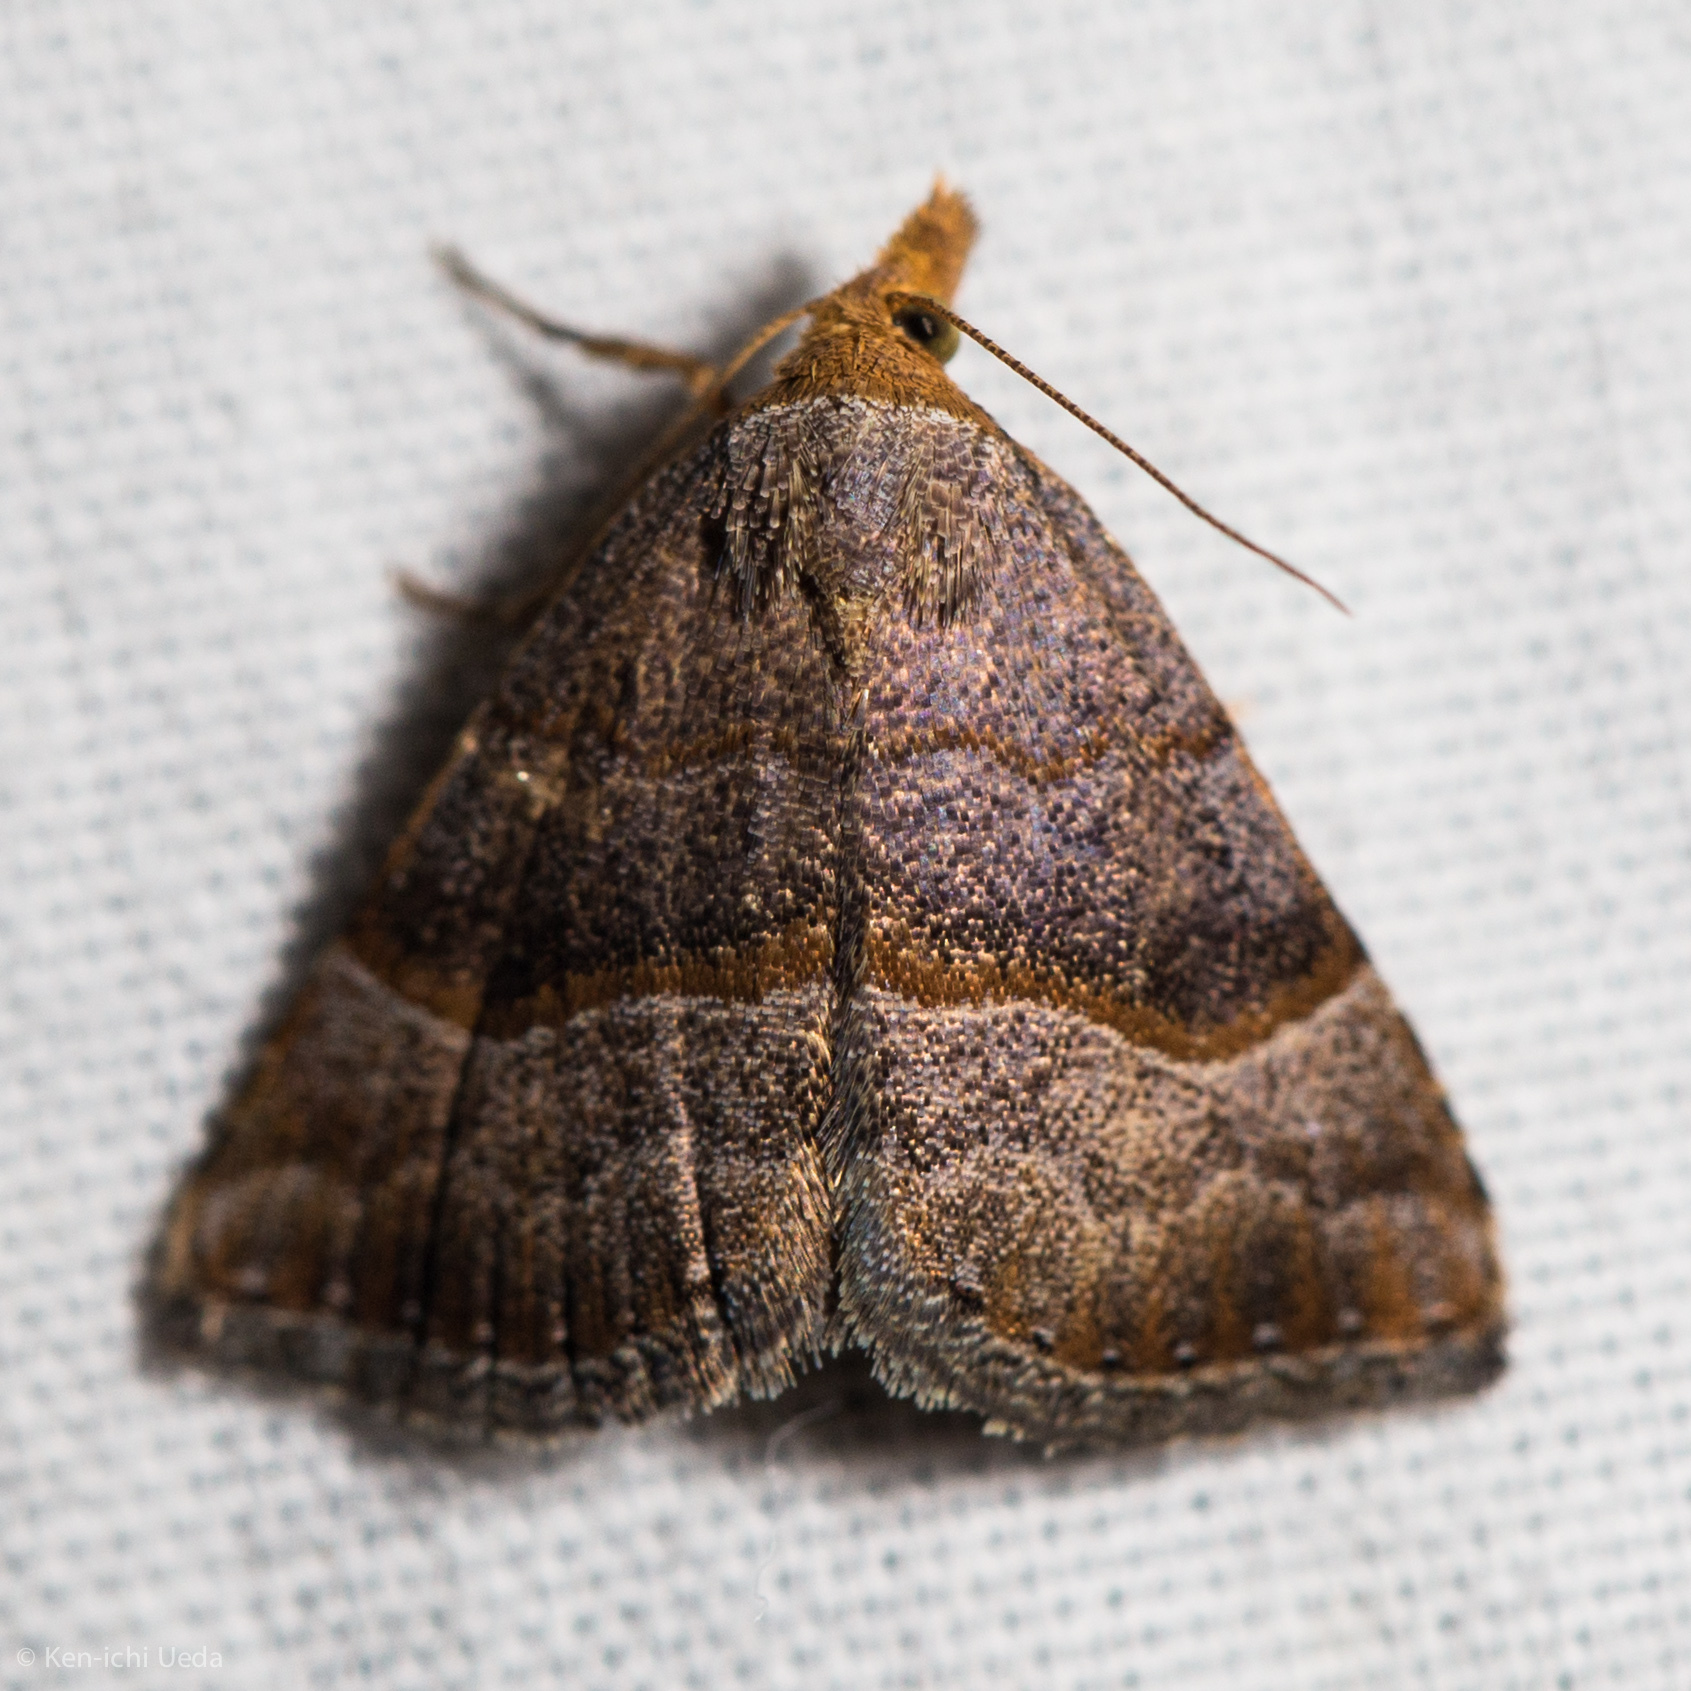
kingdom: Animalia
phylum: Arthropoda
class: Insecta
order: Lepidoptera
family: Erebidae
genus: Meranda
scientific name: Meranda susialis
